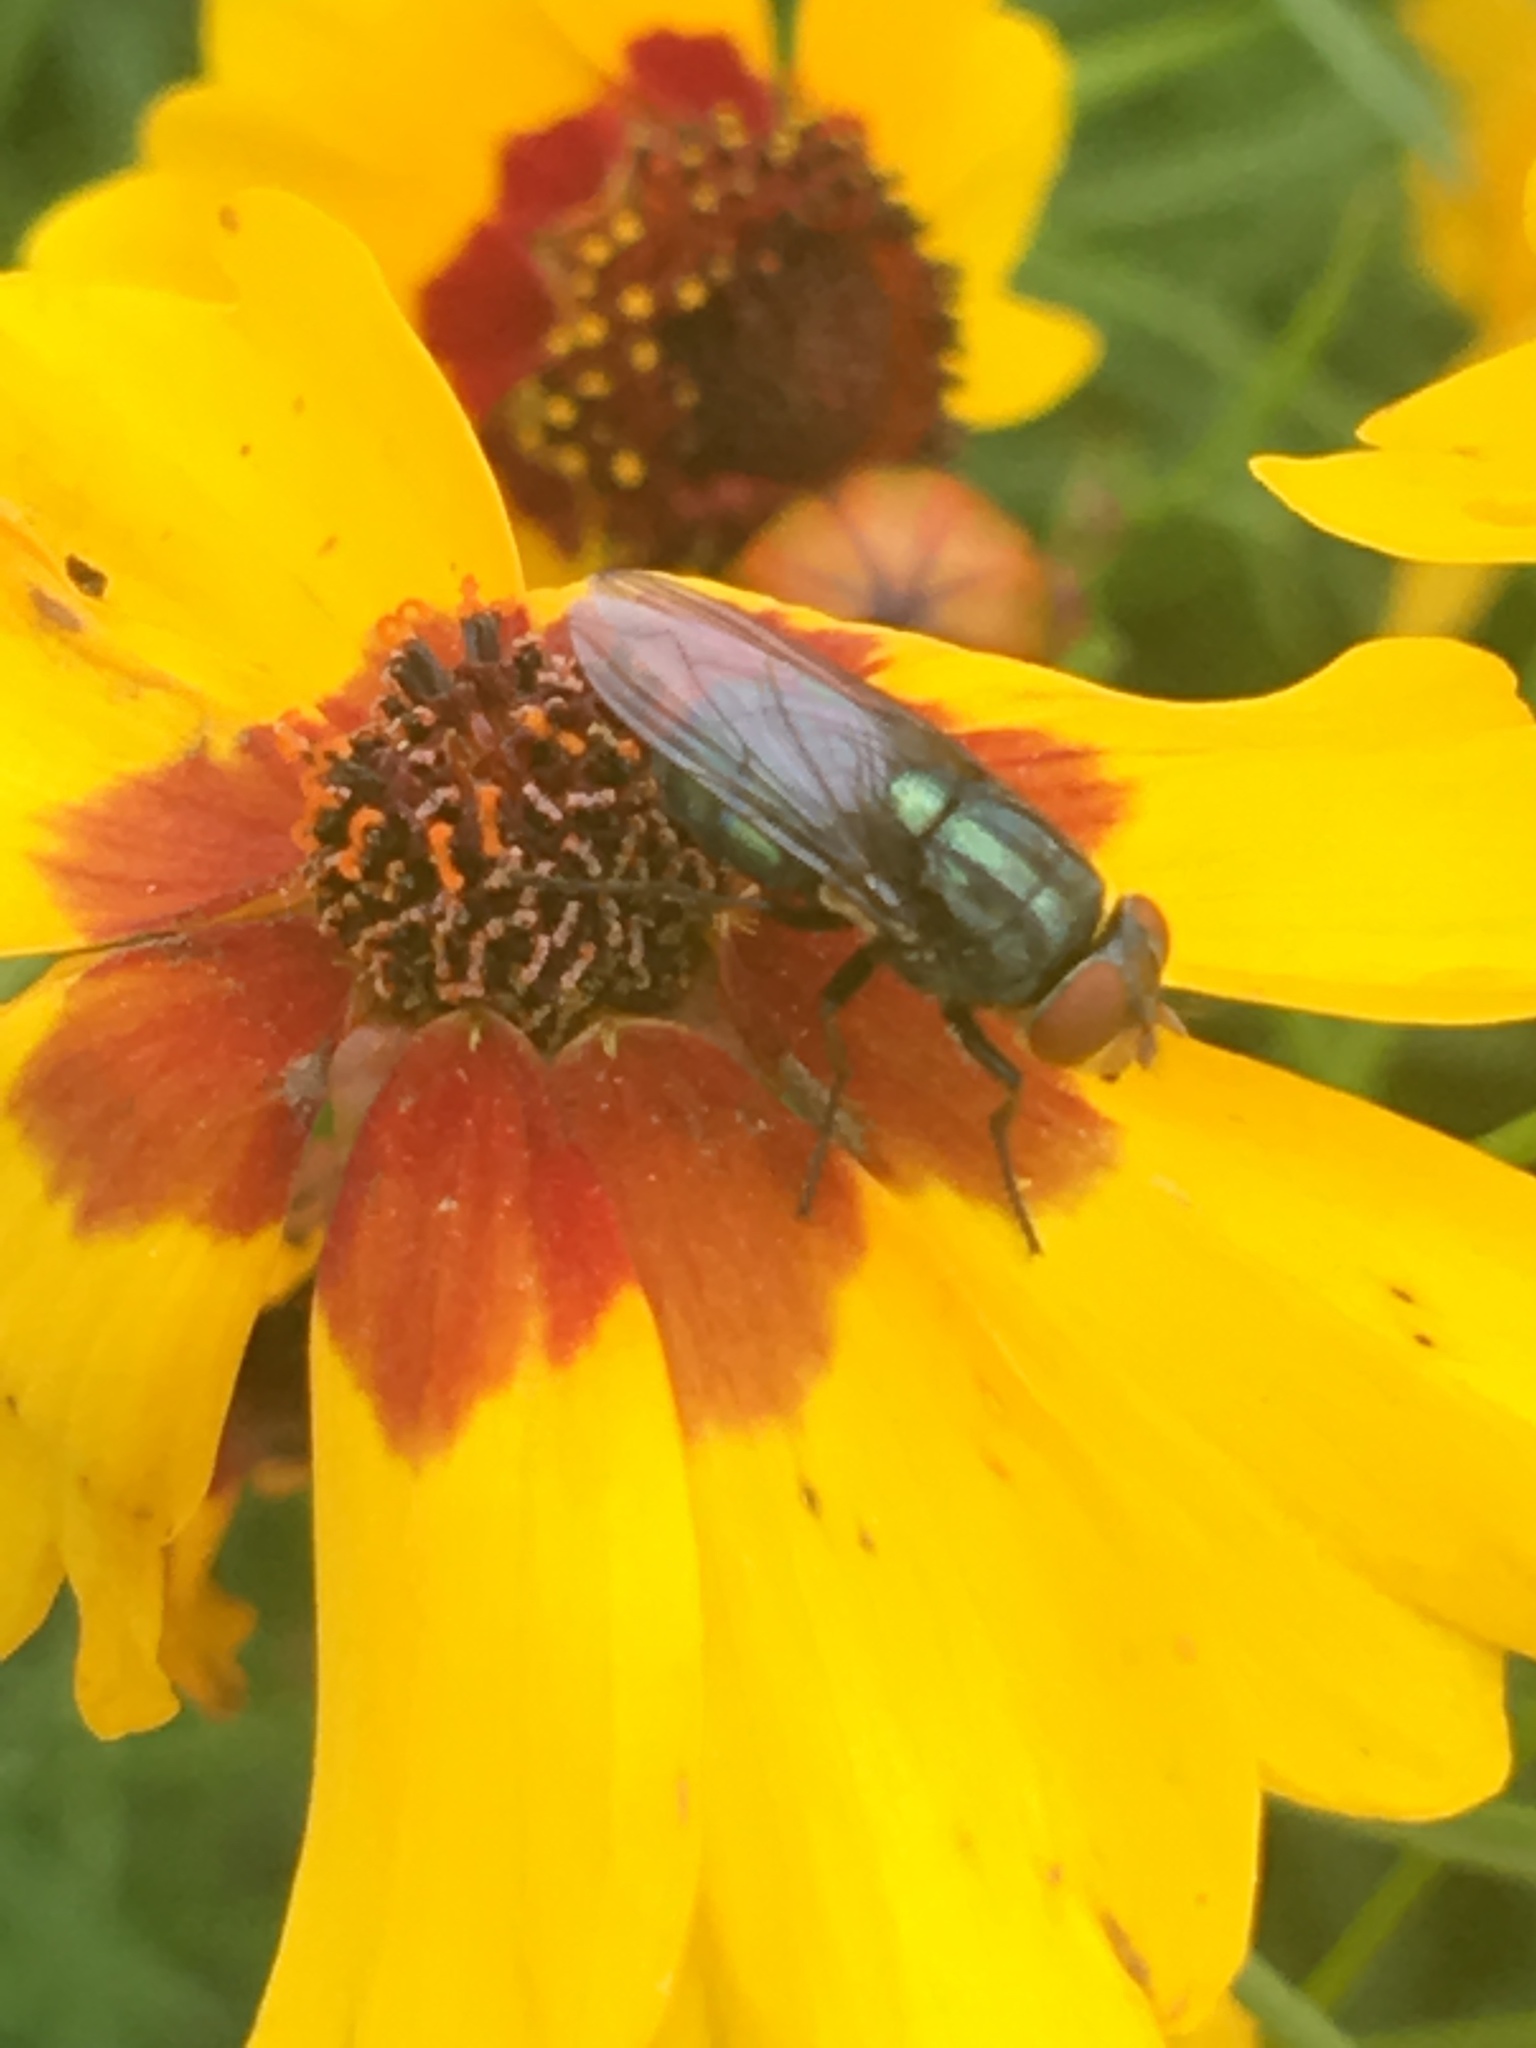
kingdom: Animalia
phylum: Arthropoda
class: Insecta
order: Diptera
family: Calliphoridae
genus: Cochliomyia
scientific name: Cochliomyia macellaria
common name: Secondary screwworm
